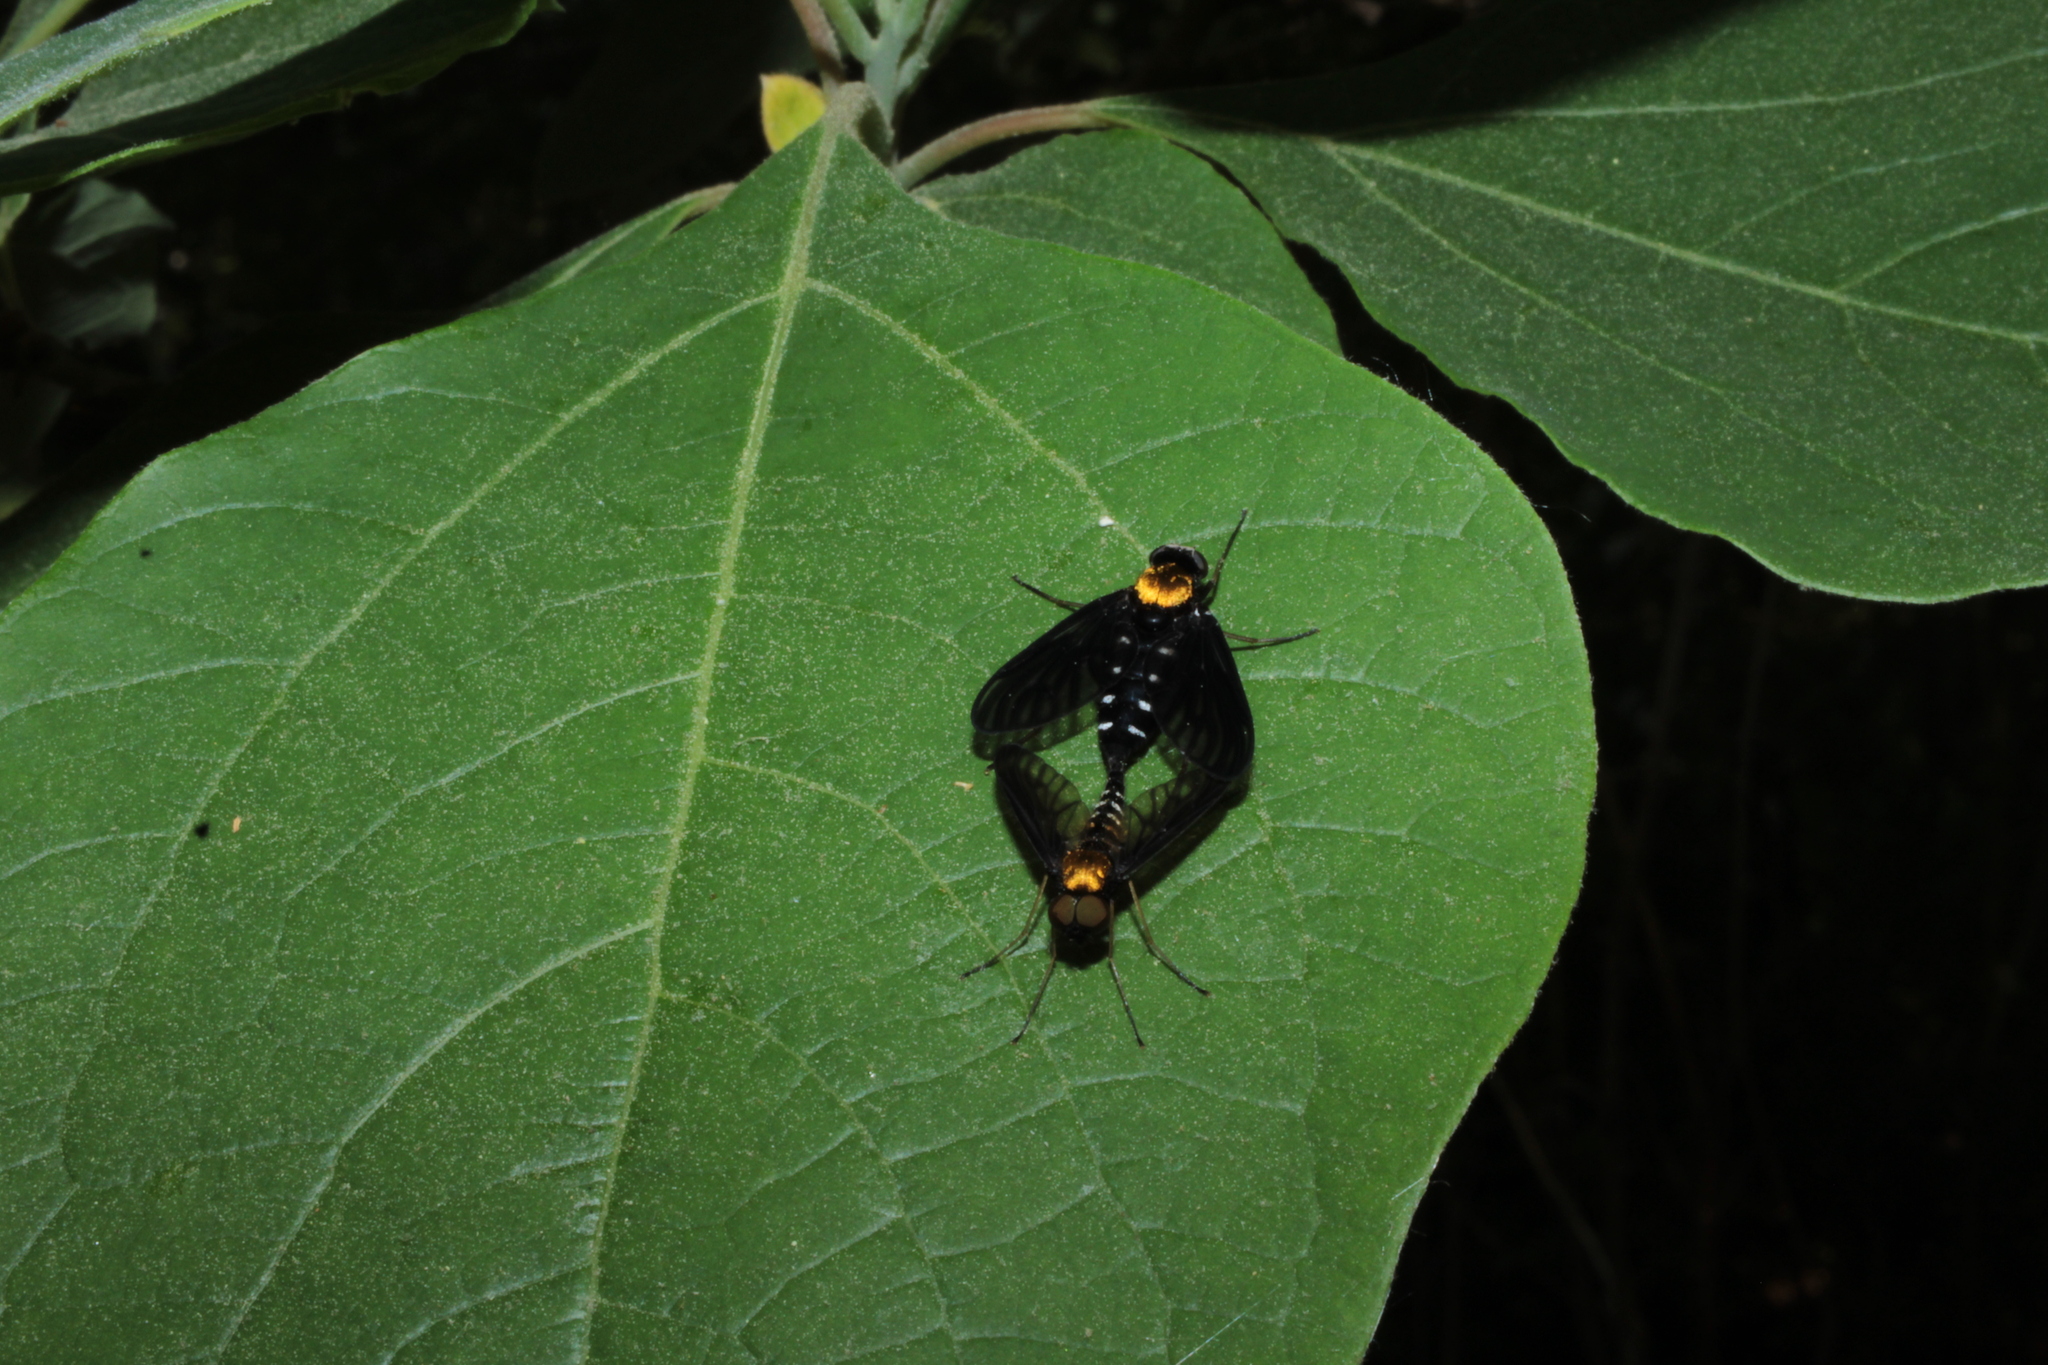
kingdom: Animalia
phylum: Arthropoda
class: Insecta
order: Diptera
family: Rhagionidae
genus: Chrysopilus
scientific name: Chrysopilus thoracicus
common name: Golden-backed snipe fly
